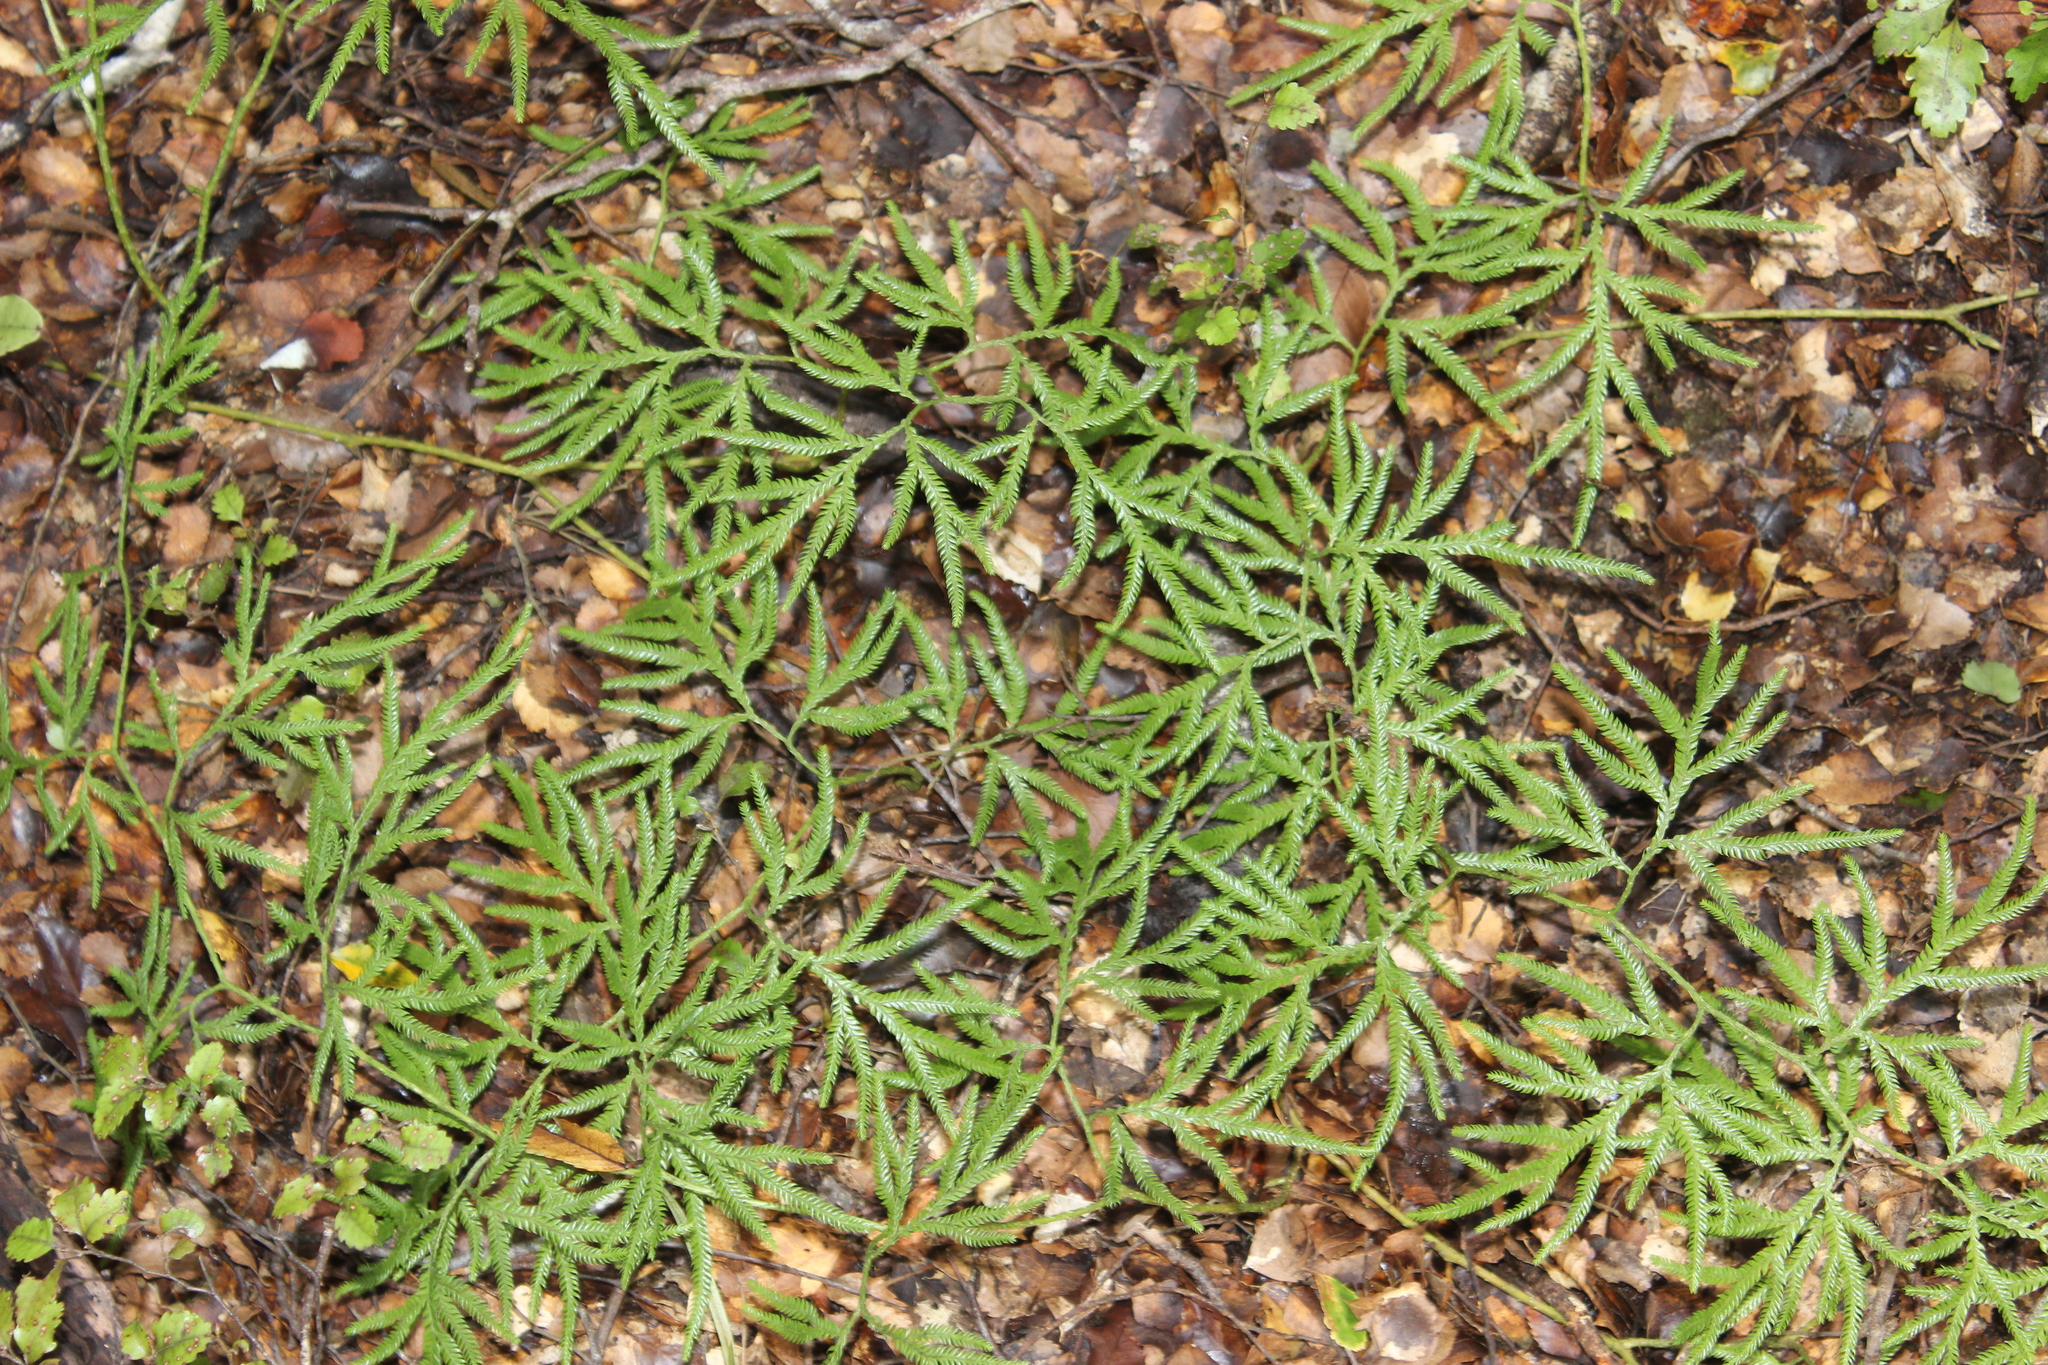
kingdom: Plantae
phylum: Tracheophyta
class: Lycopodiopsida
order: Lycopodiales
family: Lycopodiaceae
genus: Lycopodium
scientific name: Lycopodium volubile
